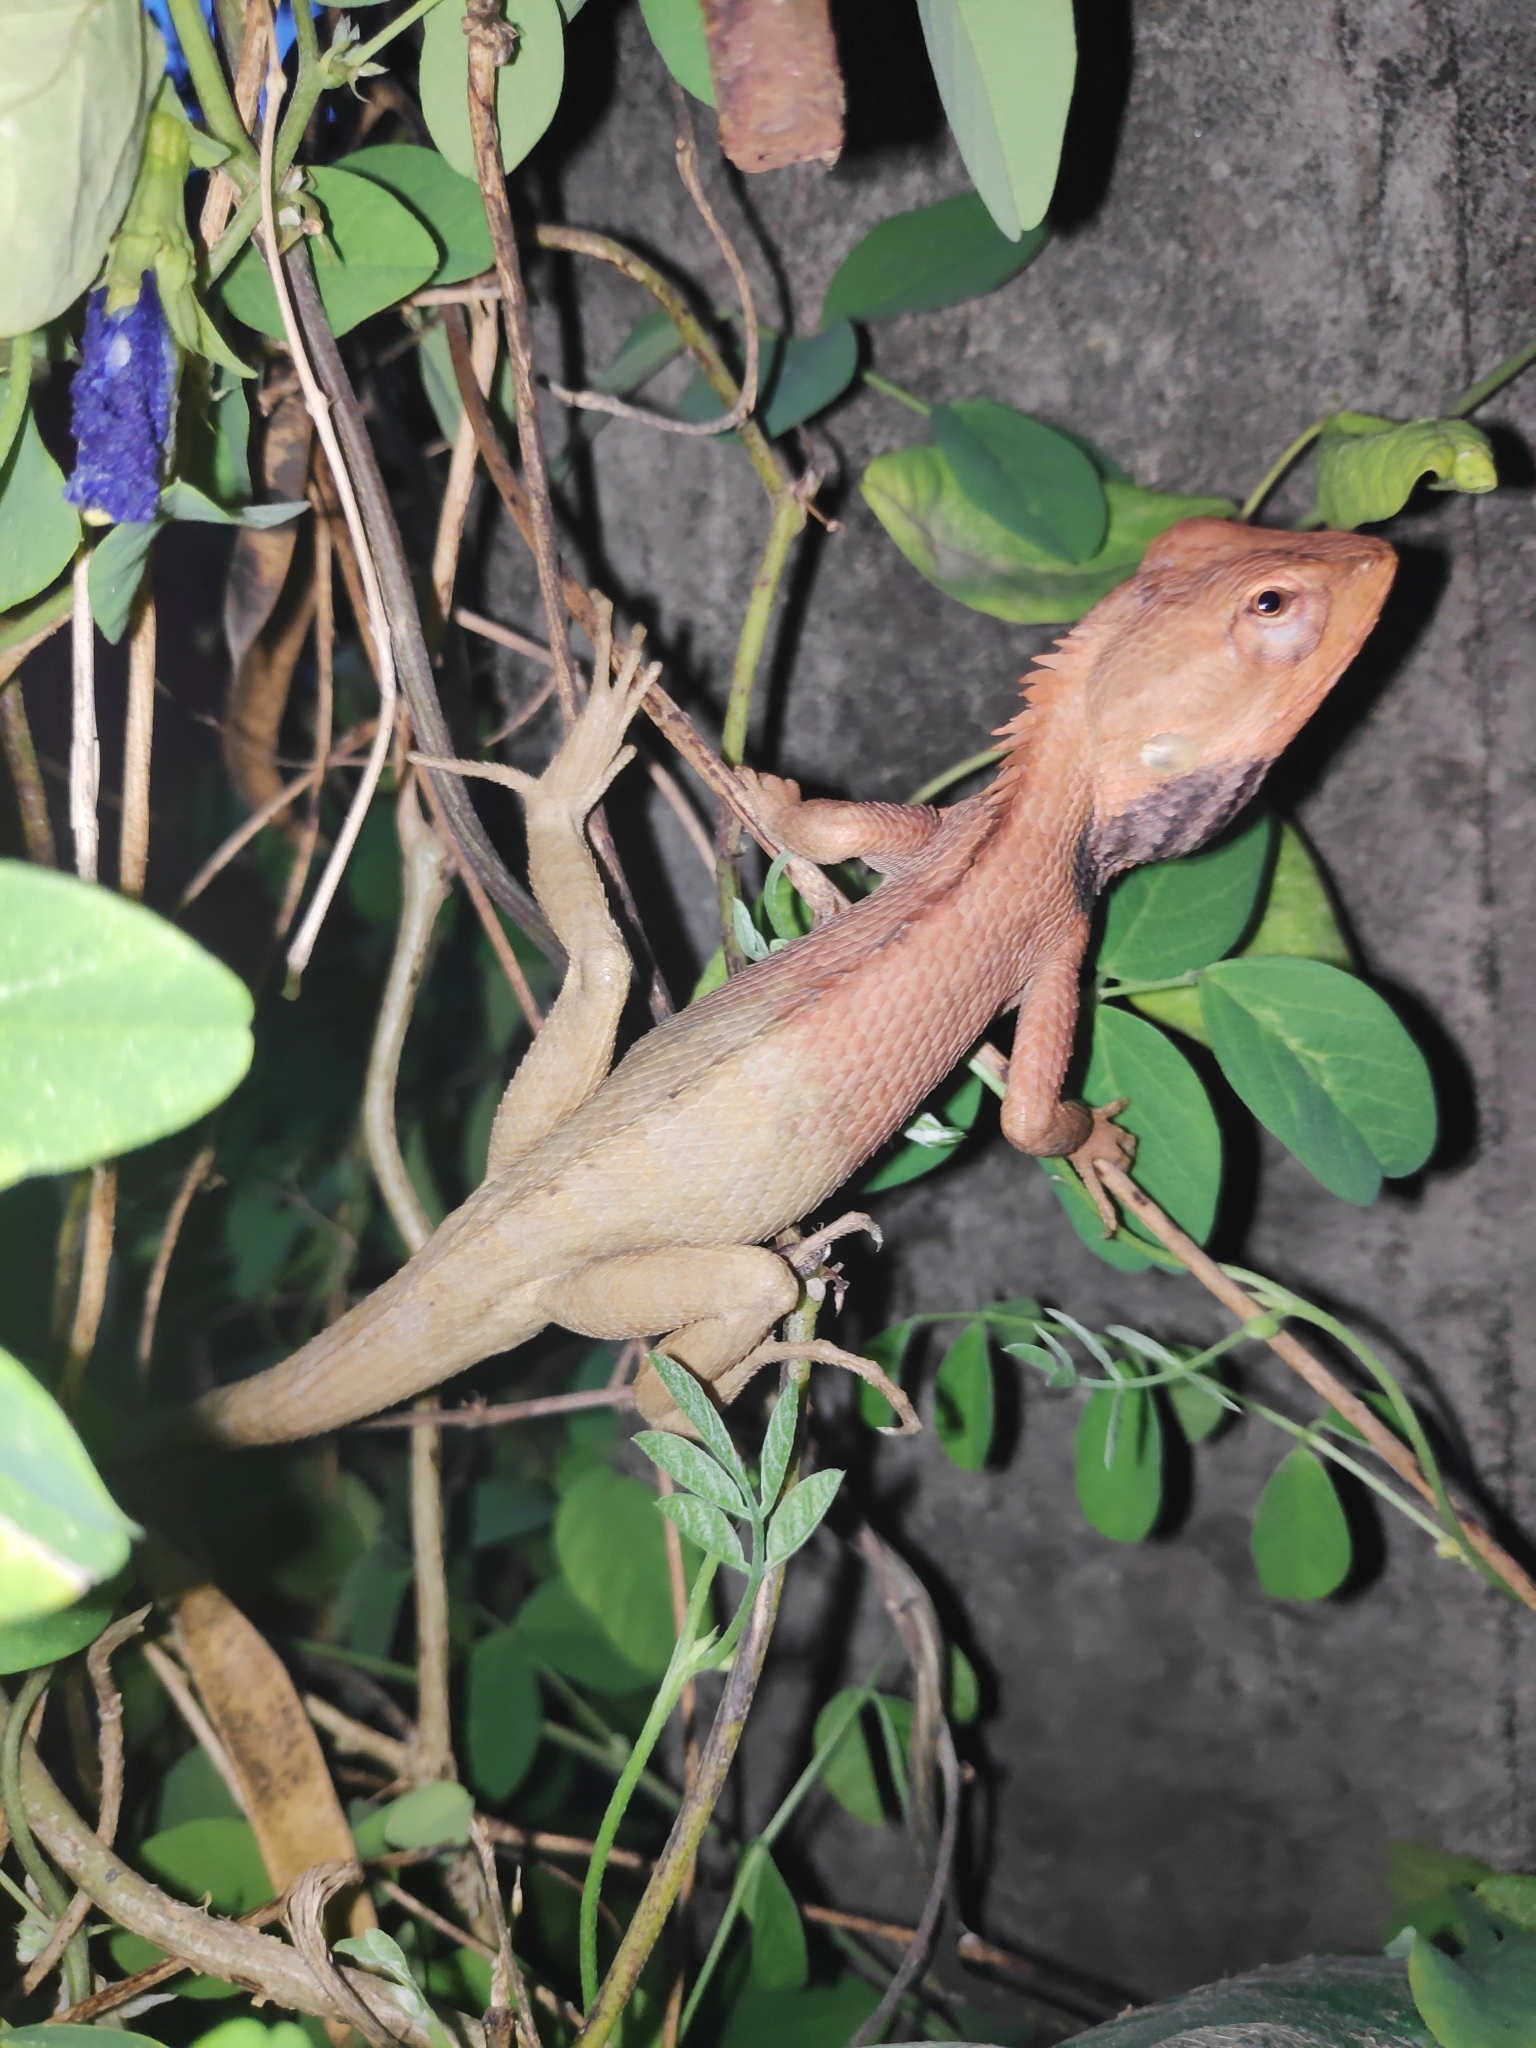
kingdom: Animalia
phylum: Chordata
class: Squamata
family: Agamidae
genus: Calotes
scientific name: Calotes versicolor
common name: Oriental garden lizard
